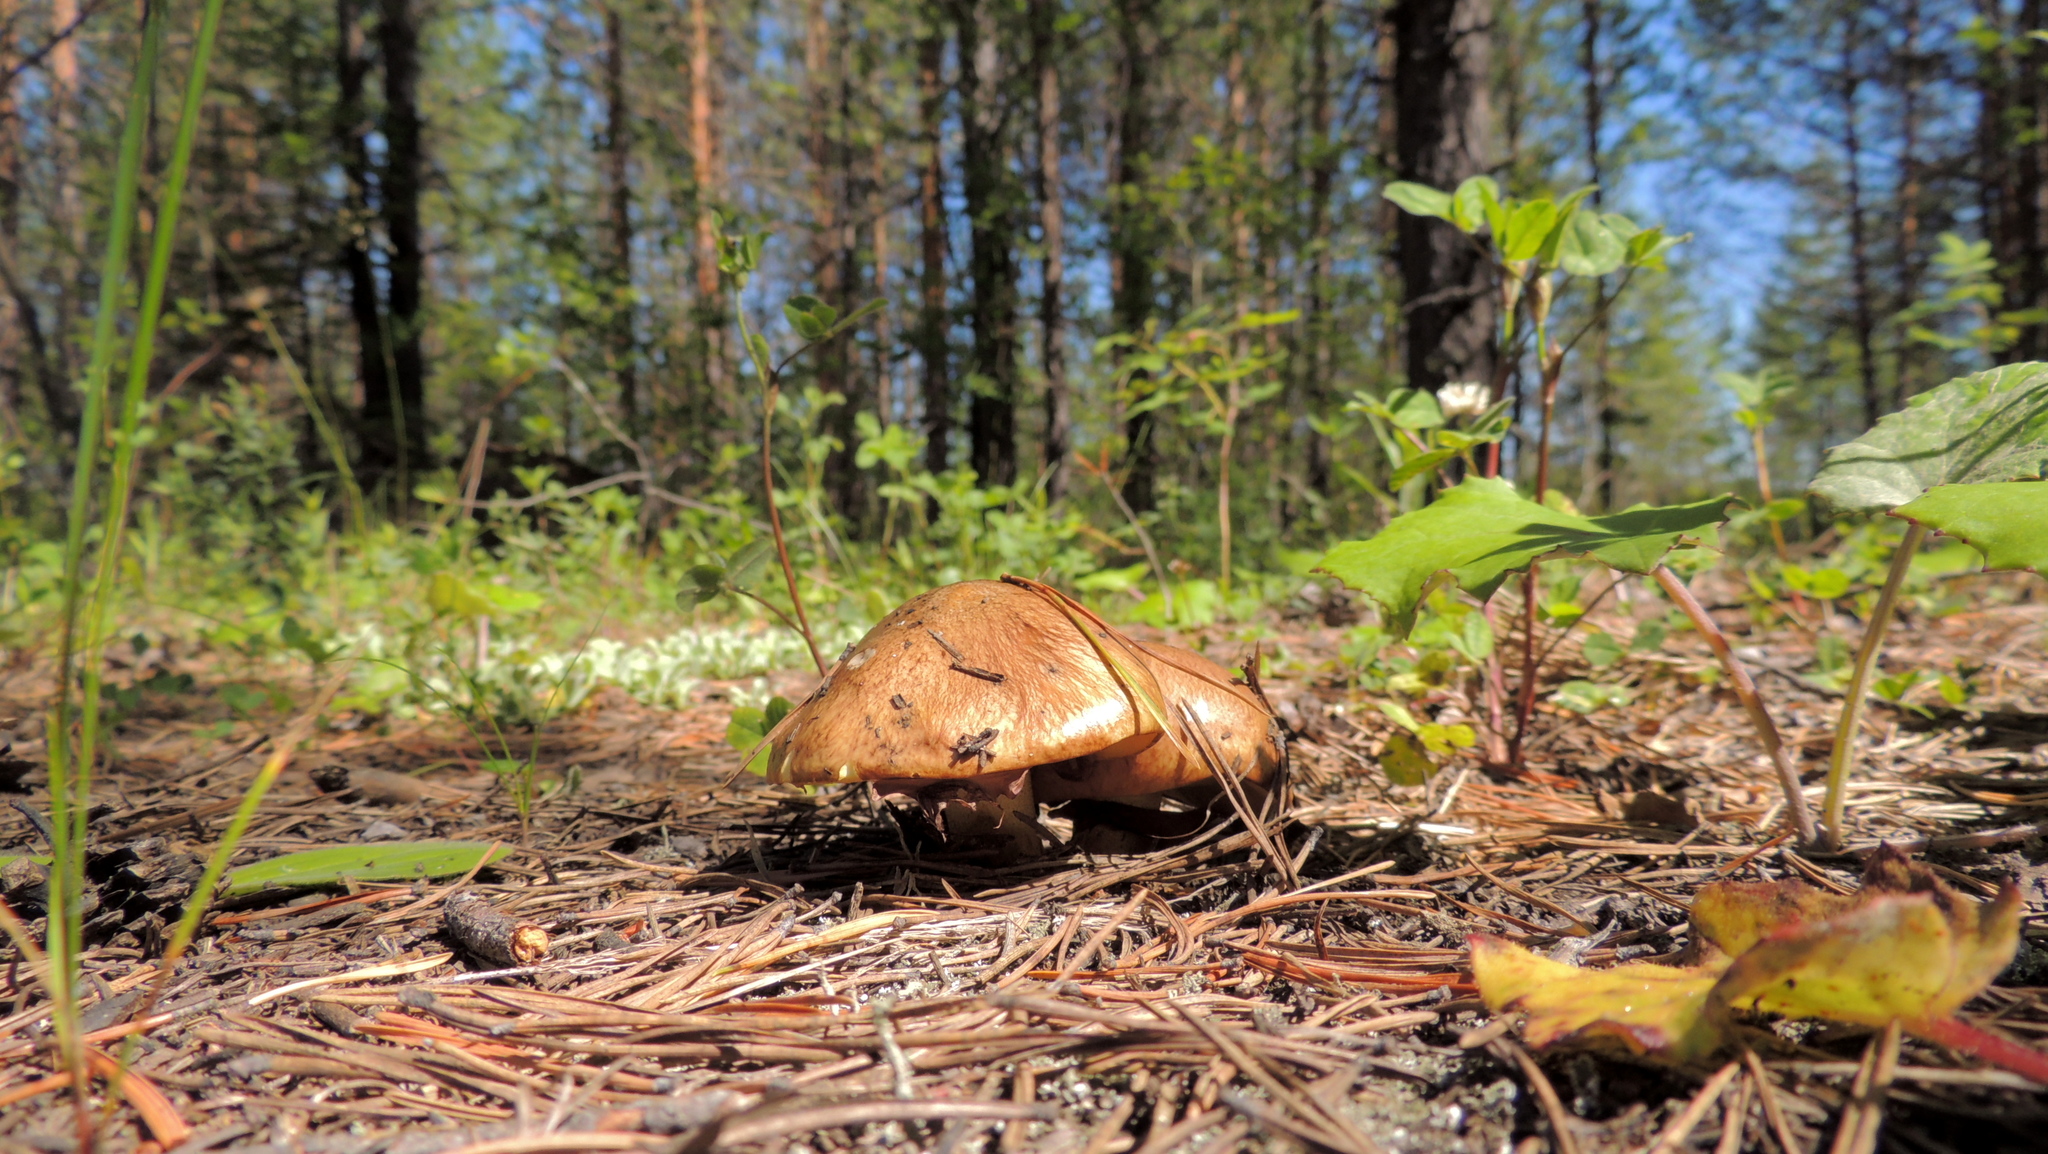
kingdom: Fungi
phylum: Basidiomycota
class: Agaricomycetes
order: Boletales
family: Suillaceae
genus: Suillus
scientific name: Suillus luteus
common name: Slippery jack
